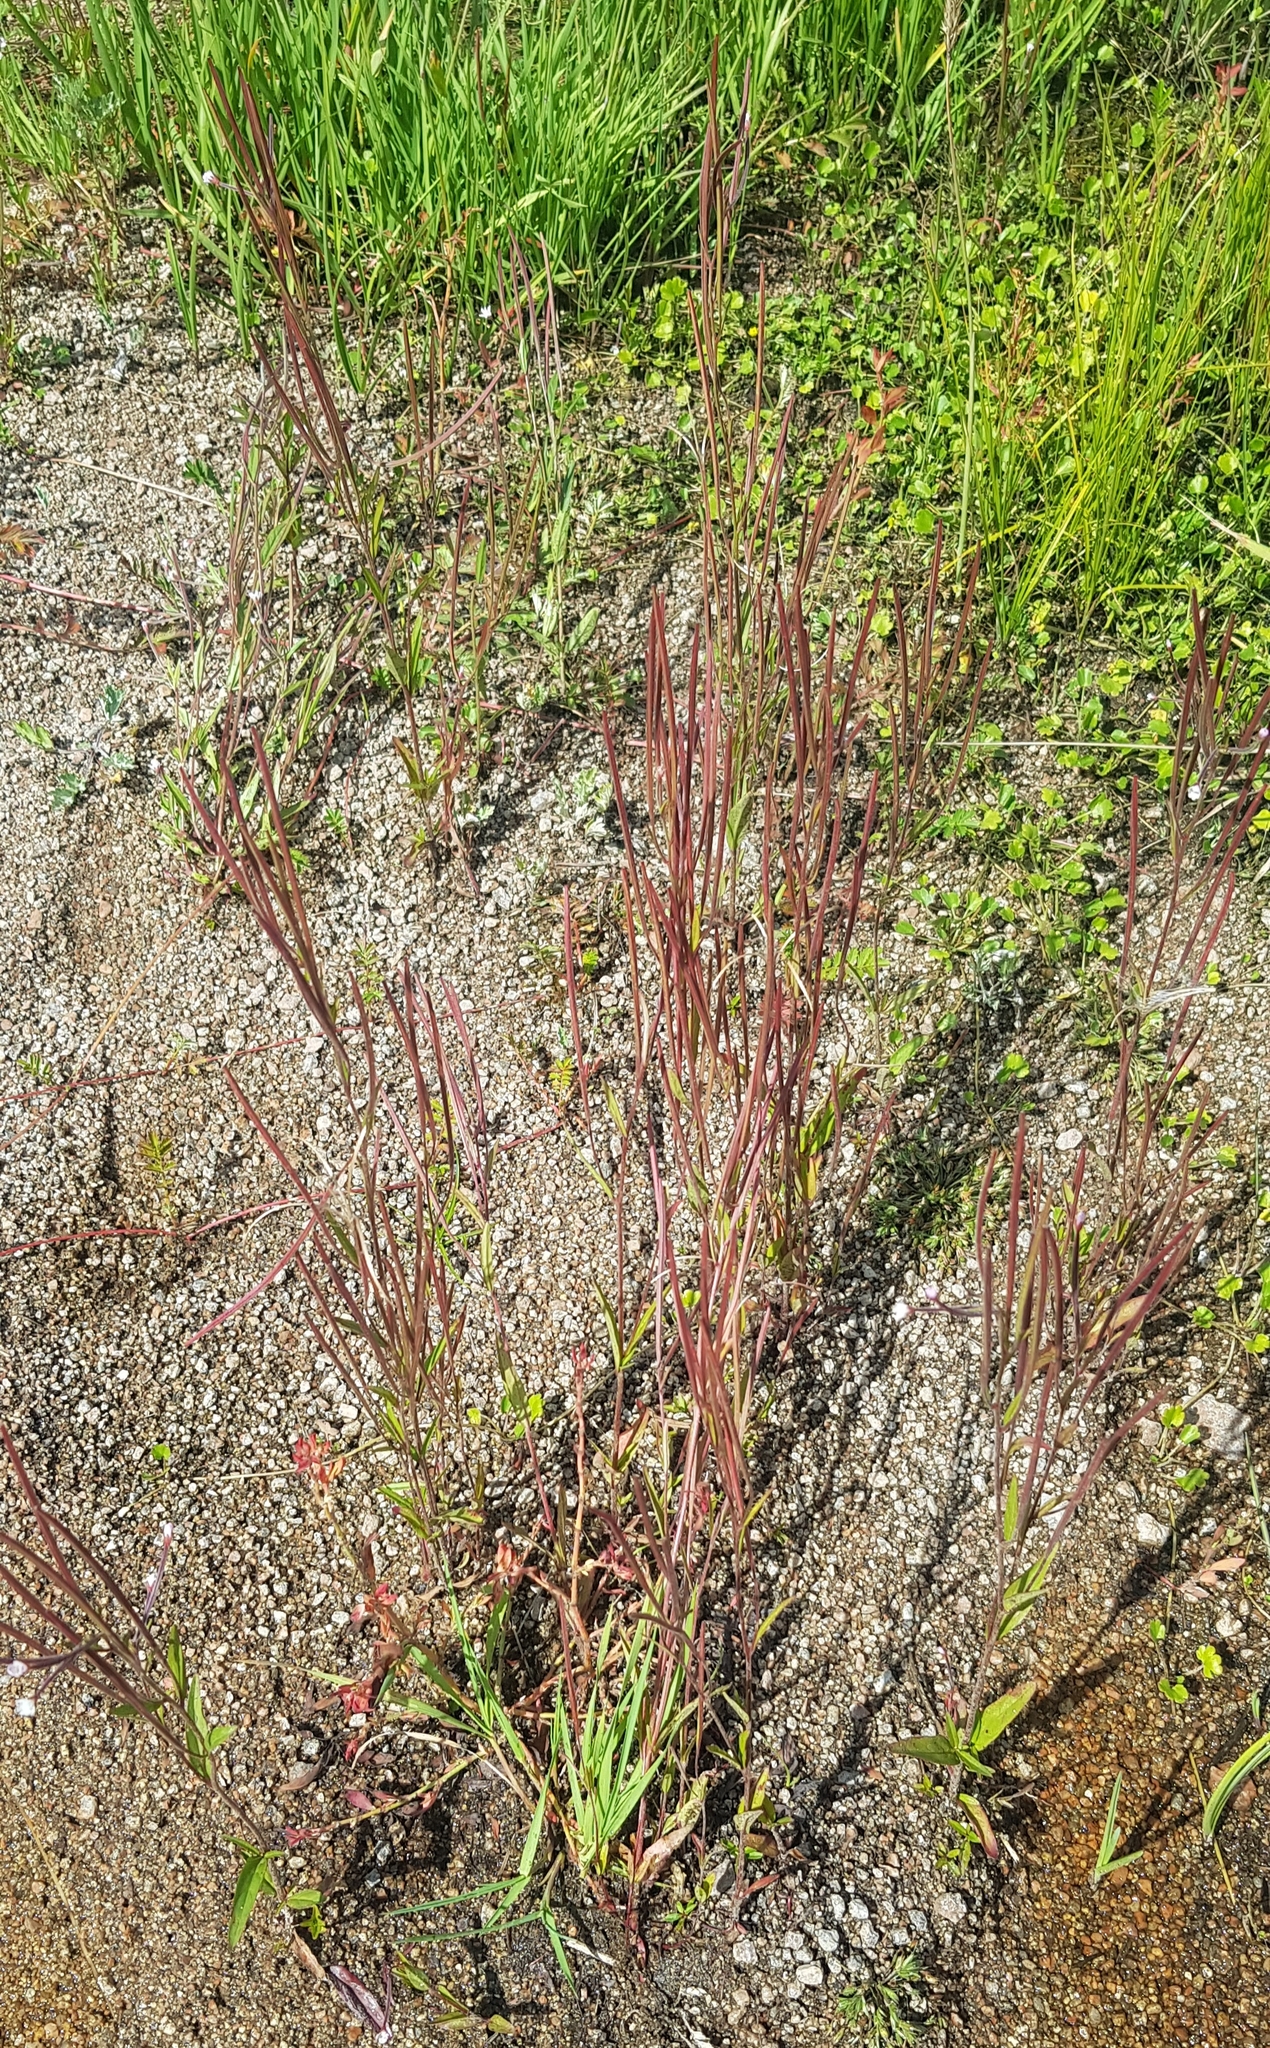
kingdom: Plantae
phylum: Tracheophyta
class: Magnoliopsida
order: Myrtales
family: Onagraceae
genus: Epilobium
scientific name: Epilobium palustre
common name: Marsh willowherb
